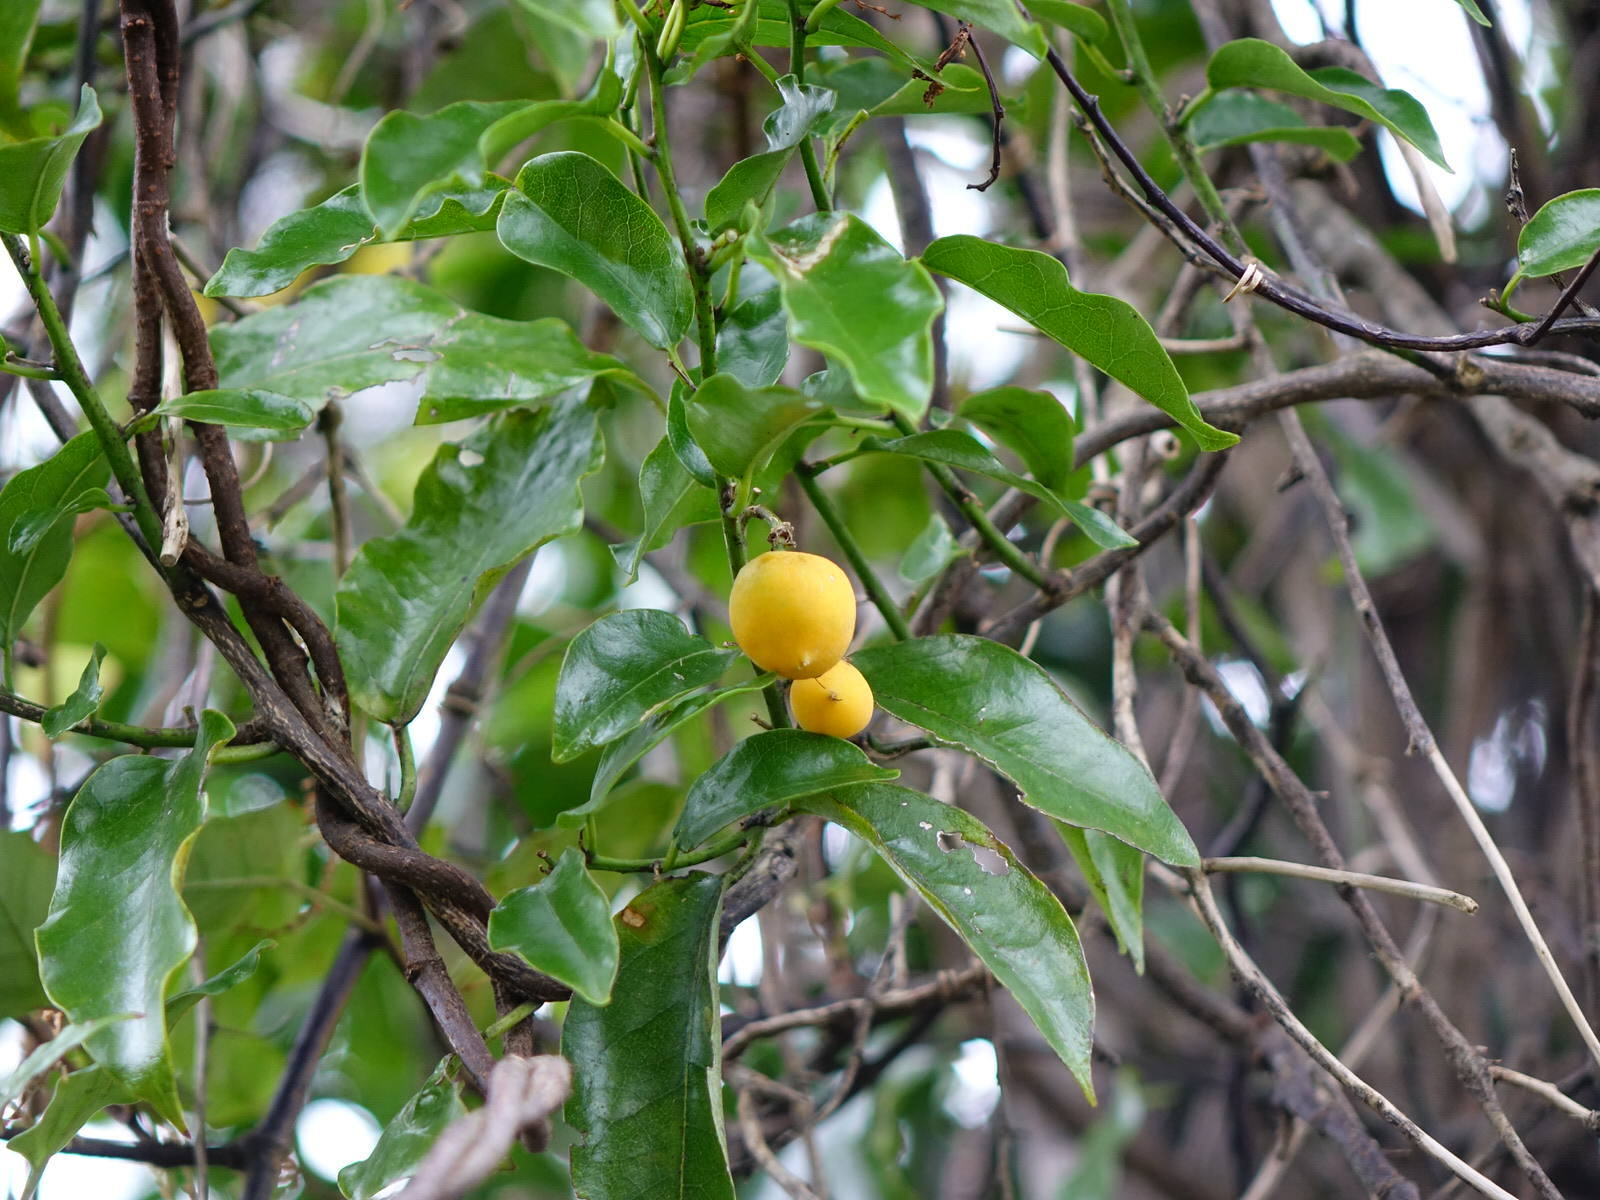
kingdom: Plantae
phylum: Tracheophyta
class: Magnoliopsida
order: Malpighiales
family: Passifloraceae
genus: Passiflora
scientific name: Passiflora tetrandra
